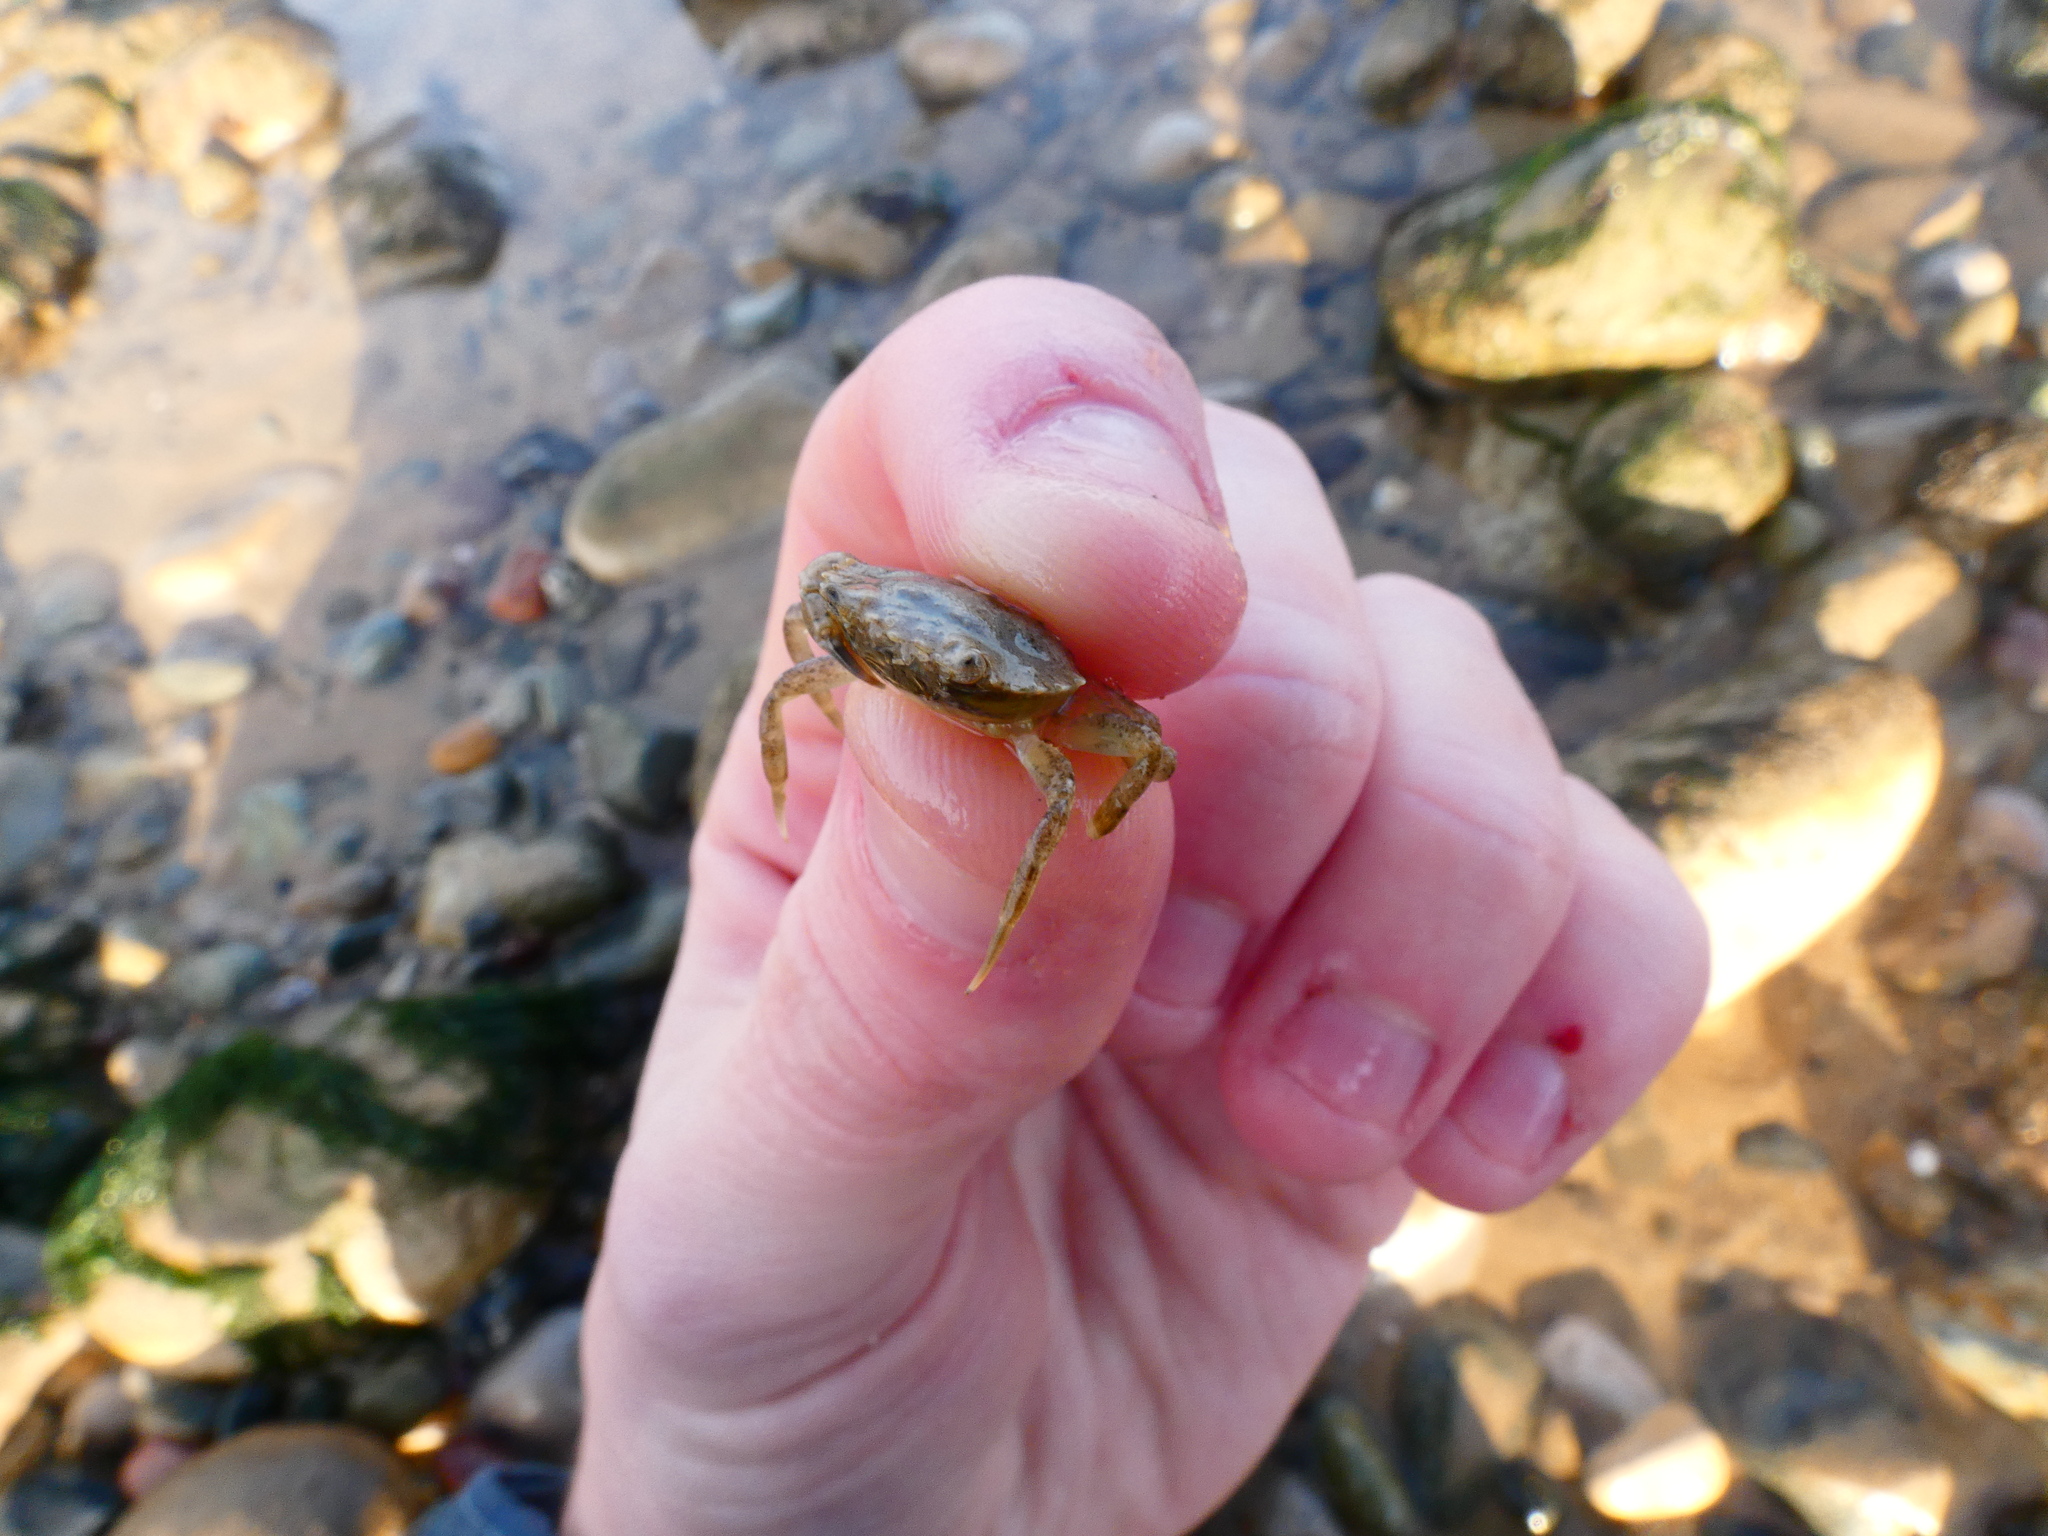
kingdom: Animalia
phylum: Arthropoda
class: Malacostraca
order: Decapoda
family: Carcinidae
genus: Carcinus
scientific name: Carcinus maenas
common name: European green crab
